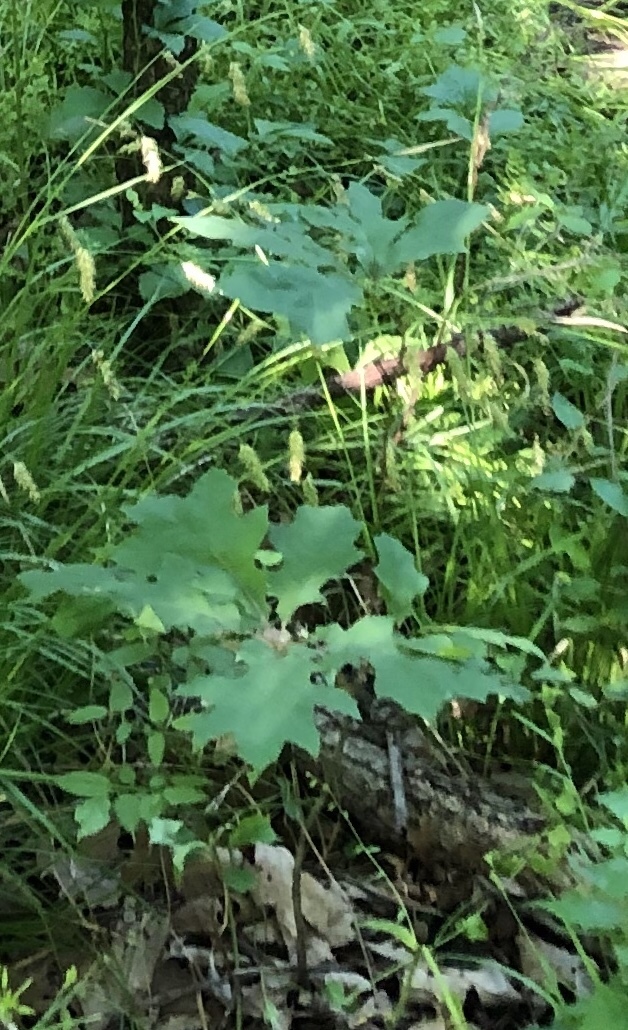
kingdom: Plantae
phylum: Tracheophyta
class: Magnoliopsida
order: Asterales
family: Asteraceae
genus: Smallanthus
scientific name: Smallanthus uvedalia
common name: Bear's-foot
